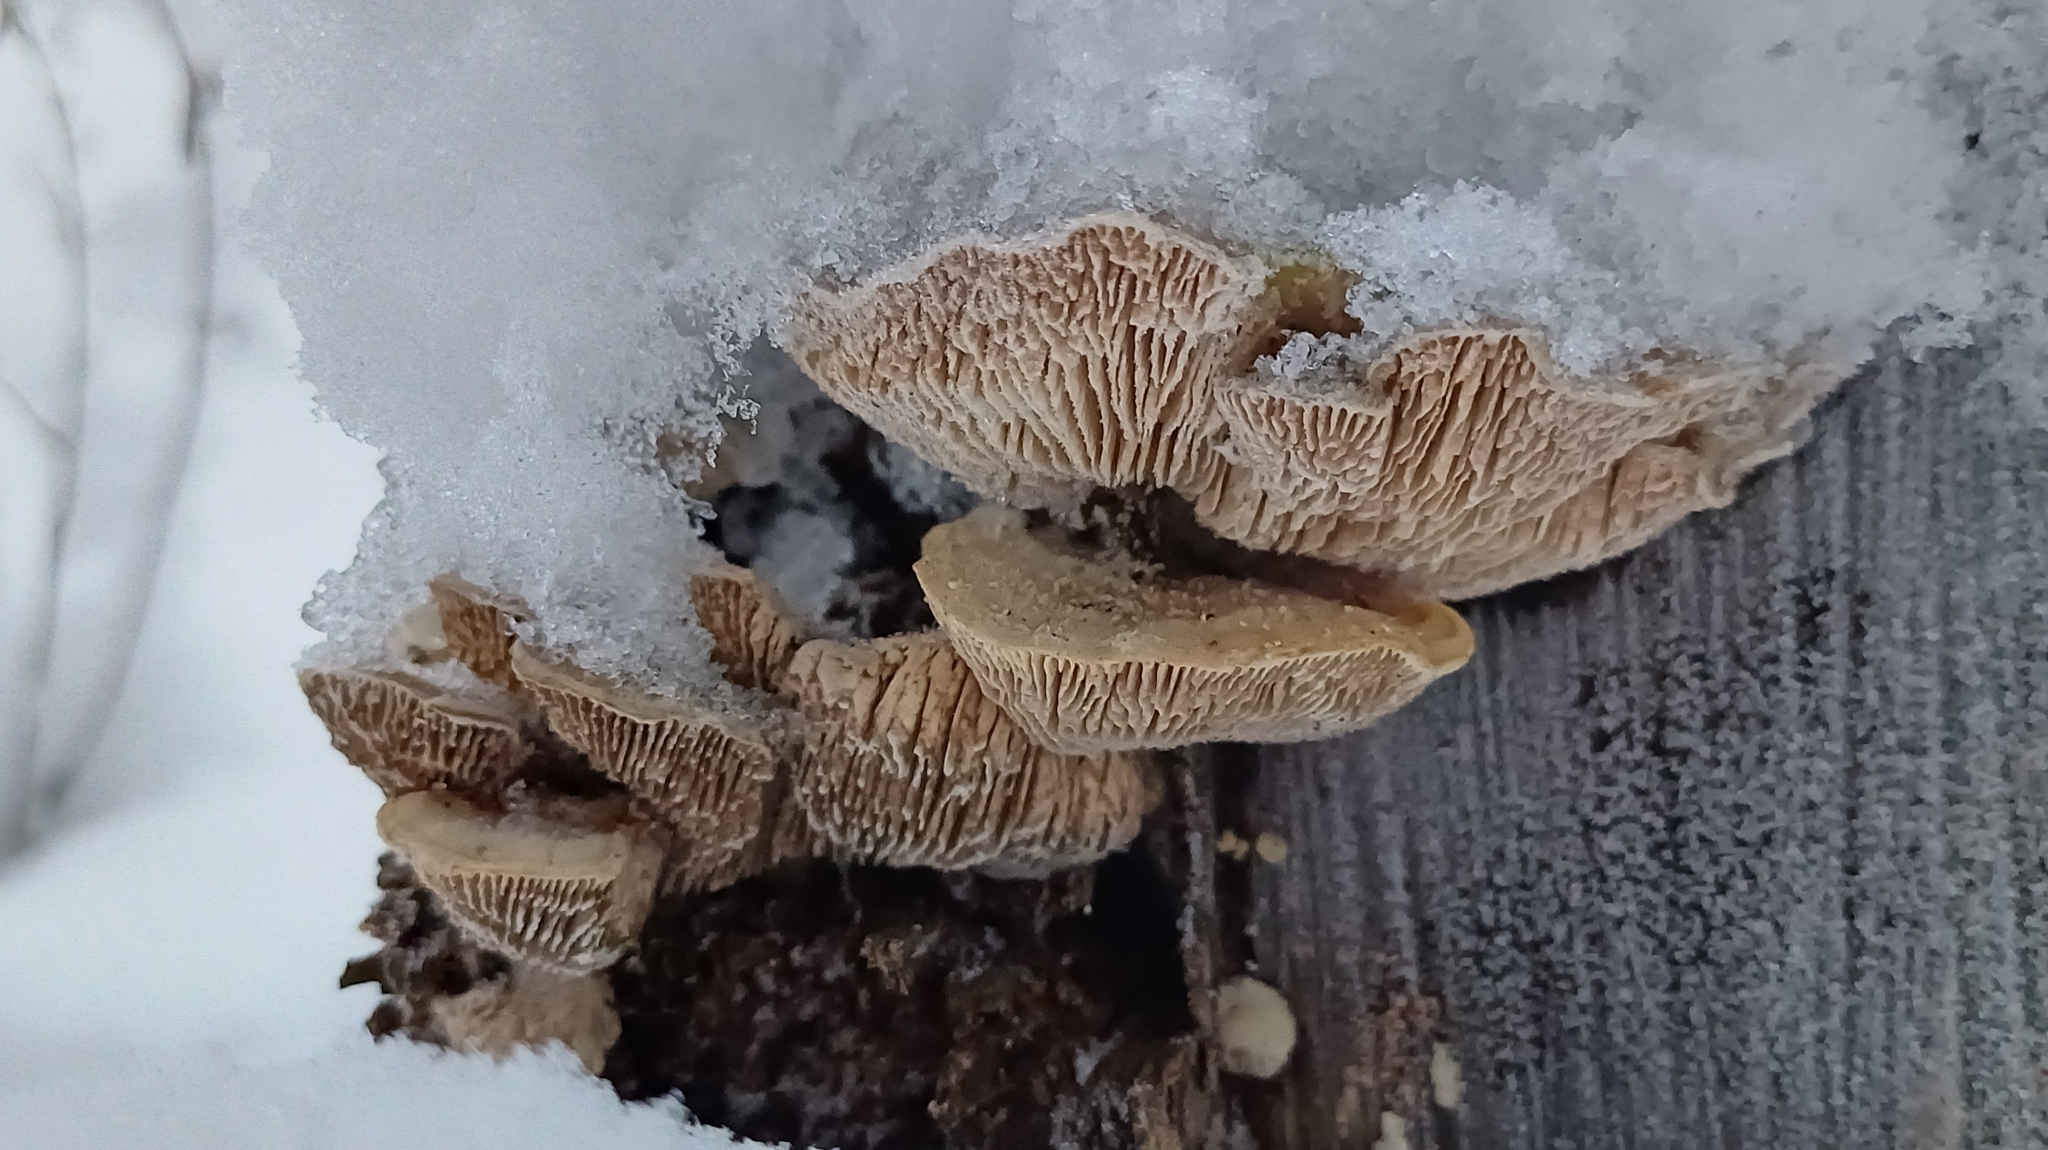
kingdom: Fungi
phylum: Basidiomycota
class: Agaricomycetes
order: Polyporales
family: Fomitopsidaceae
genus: Fomitopsis
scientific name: Fomitopsis
